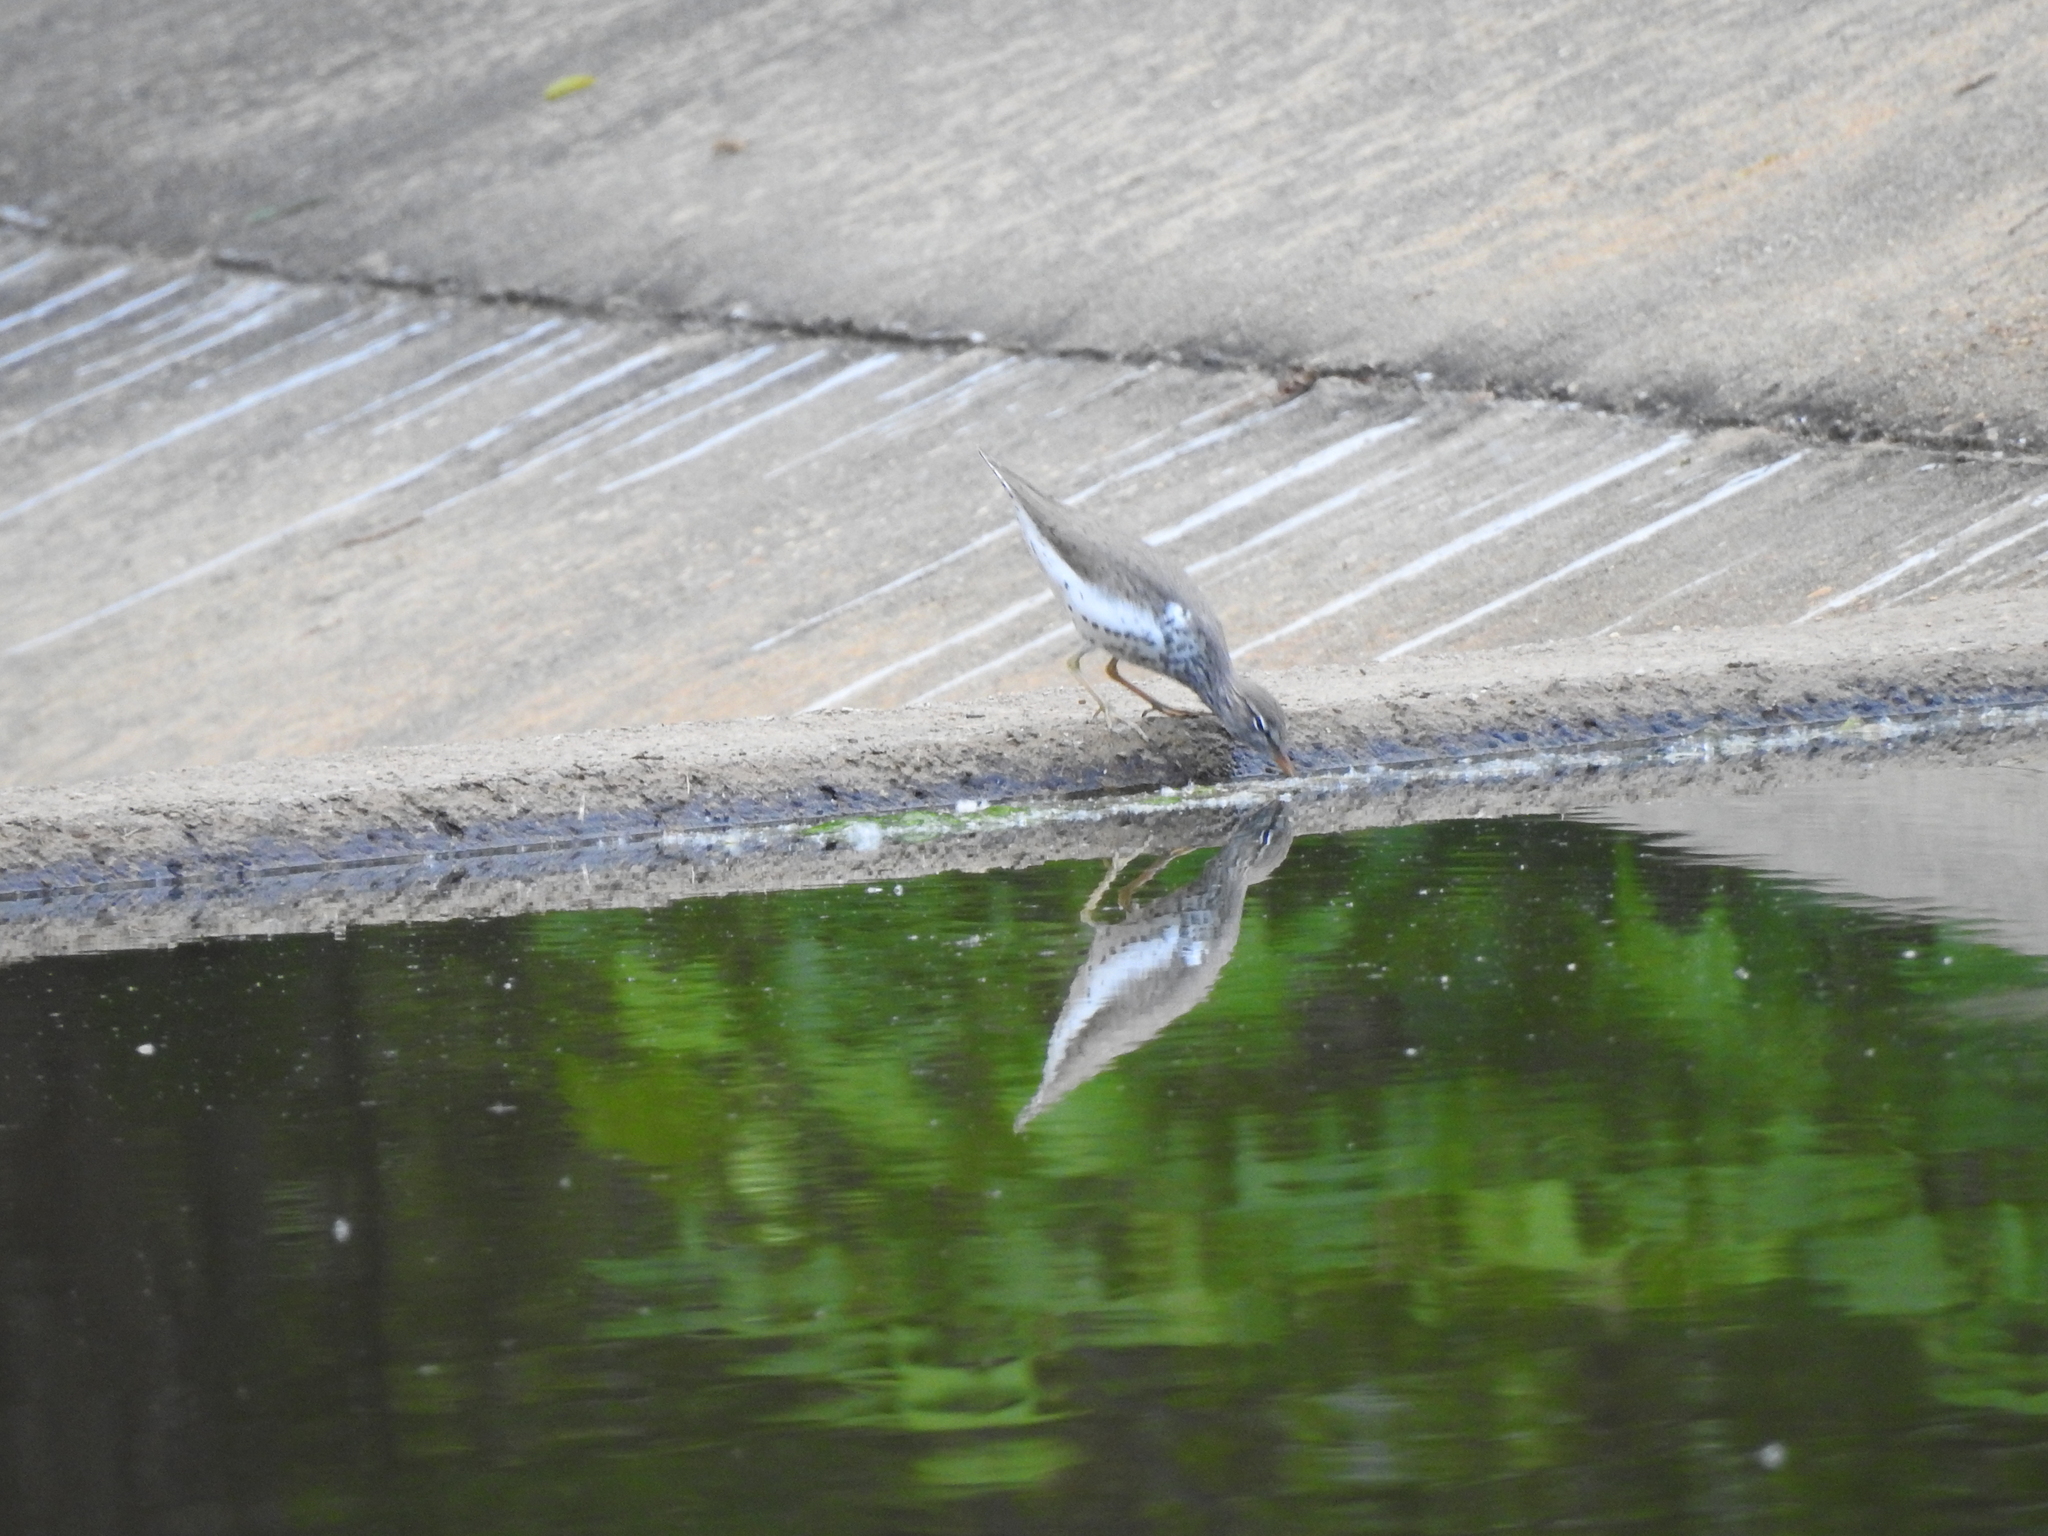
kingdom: Animalia
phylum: Chordata
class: Aves
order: Charadriiformes
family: Scolopacidae
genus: Actitis
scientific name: Actitis macularius
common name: Spotted sandpiper
